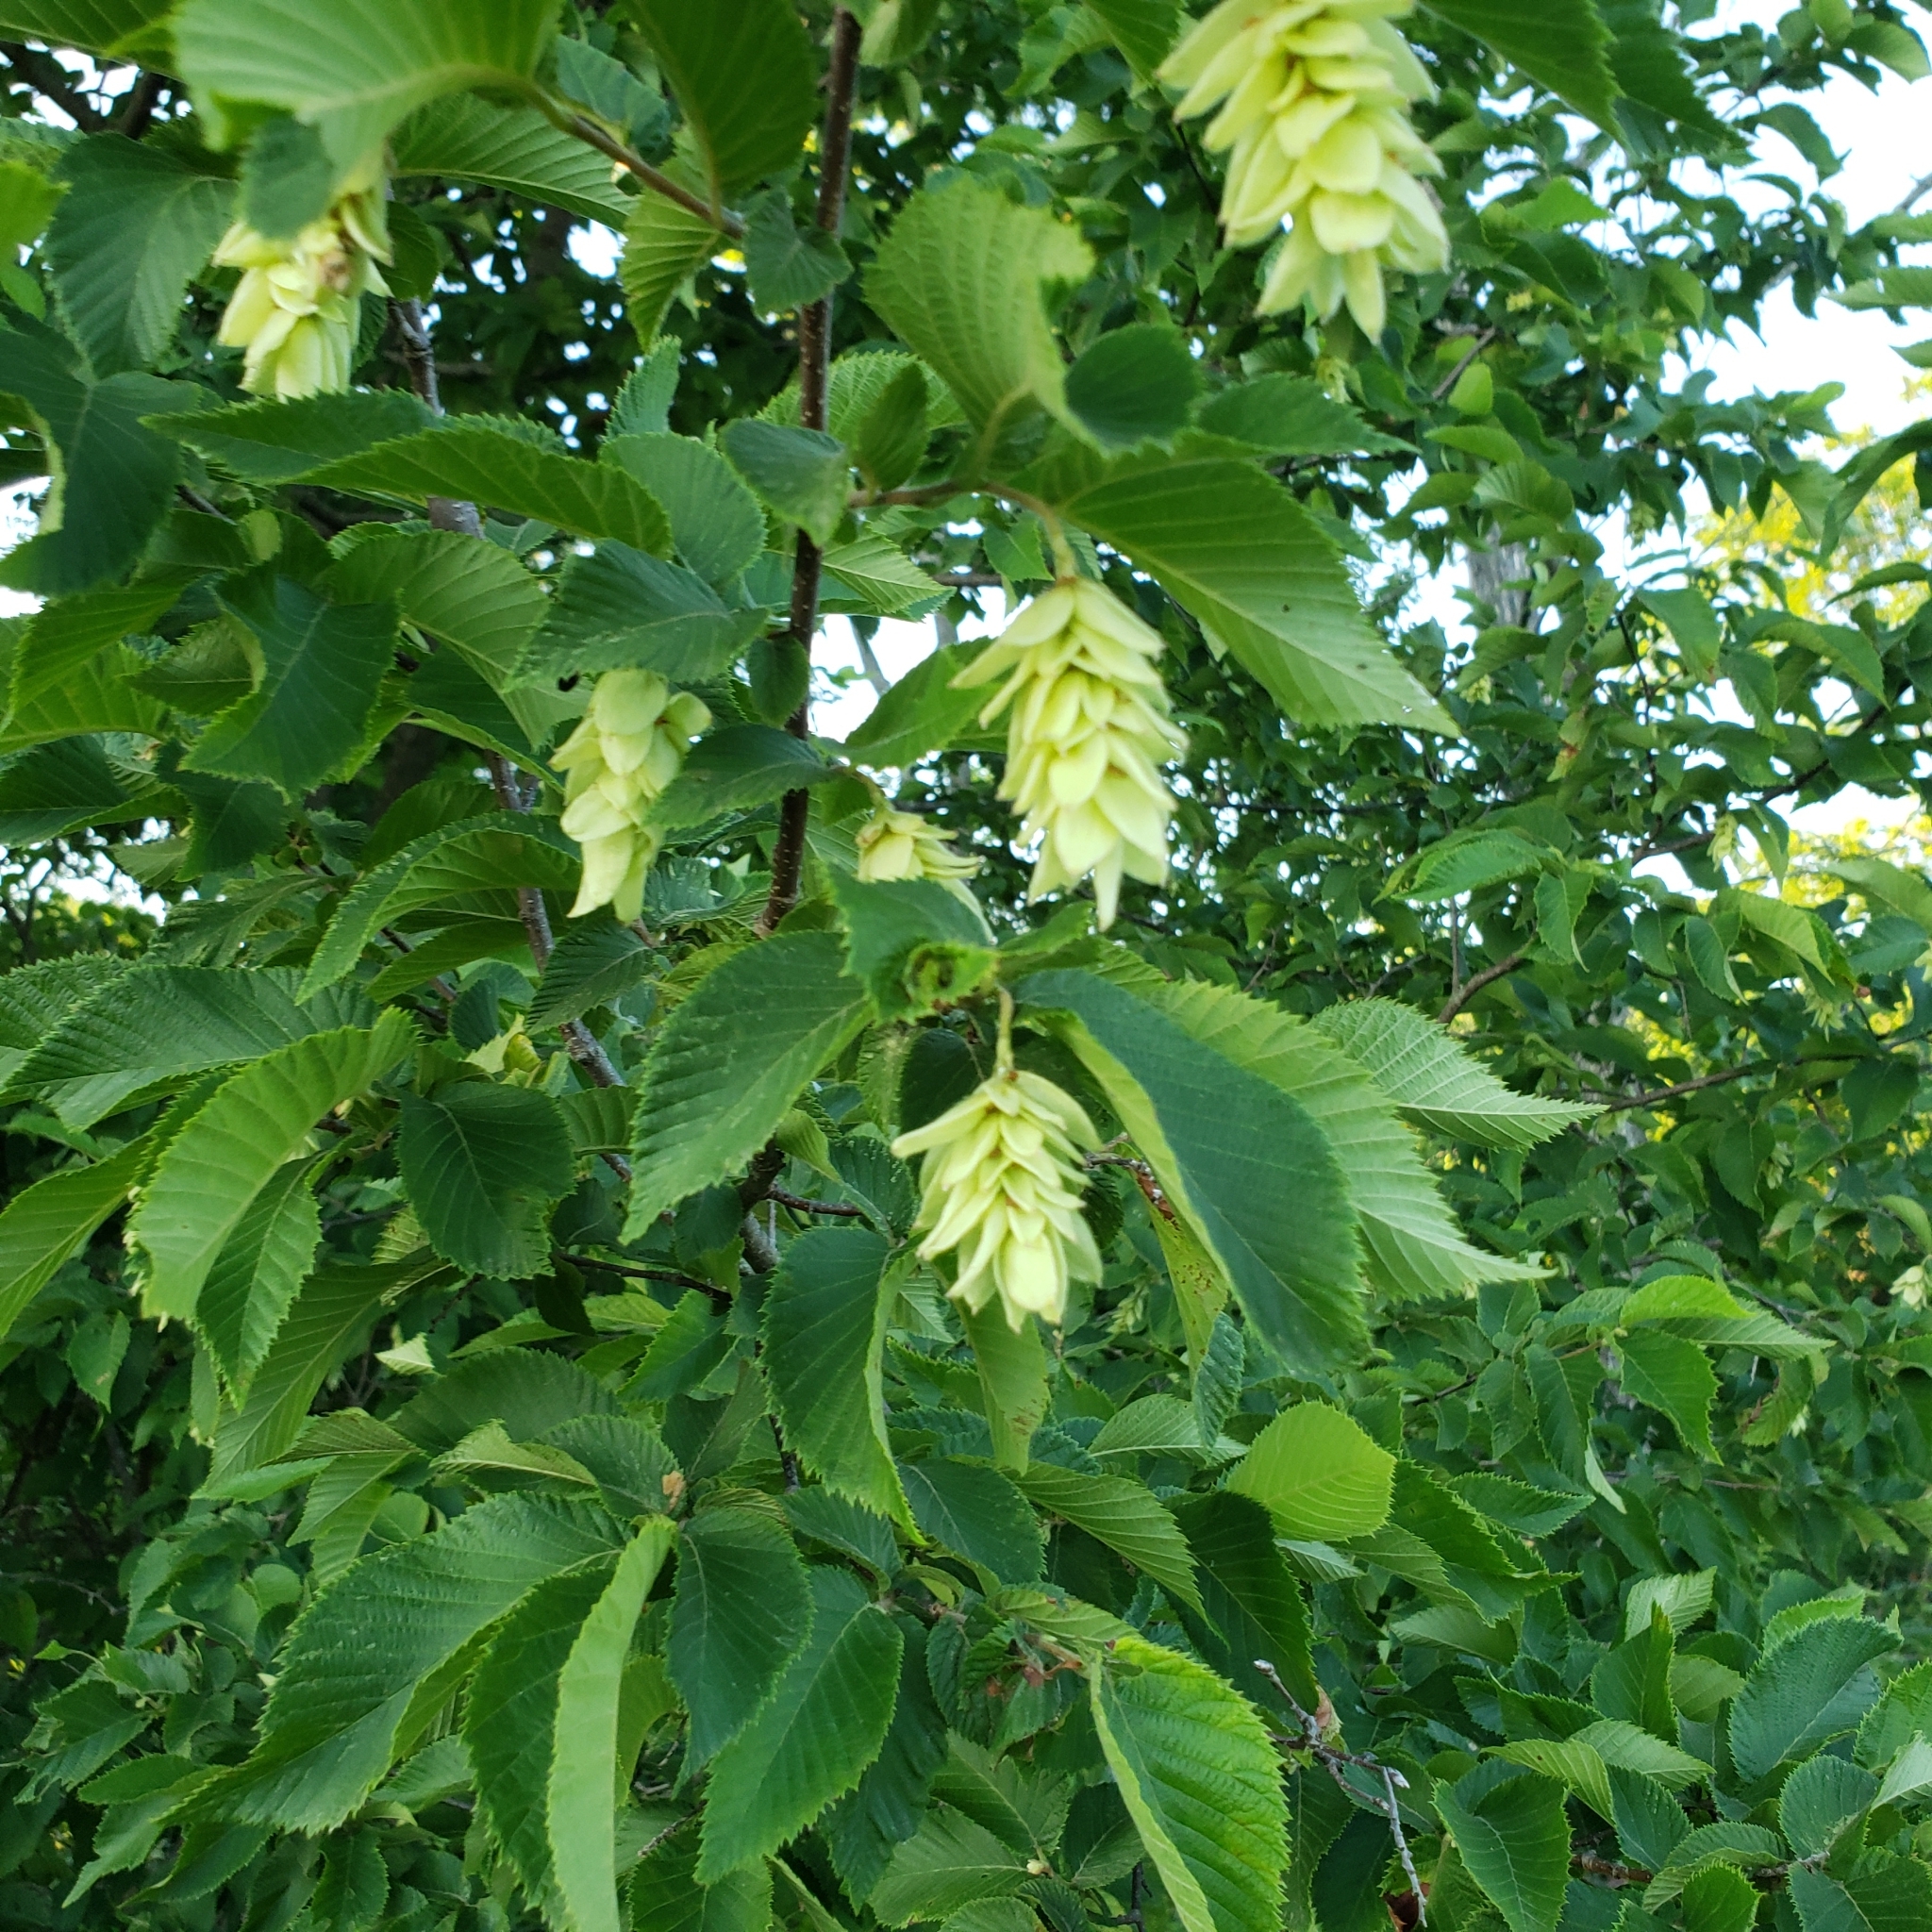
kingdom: Plantae
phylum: Tracheophyta
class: Magnoliopsida
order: Fagales
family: Betulaceae
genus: Ostrya
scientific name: Ostrya virginiana
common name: Ironwood
